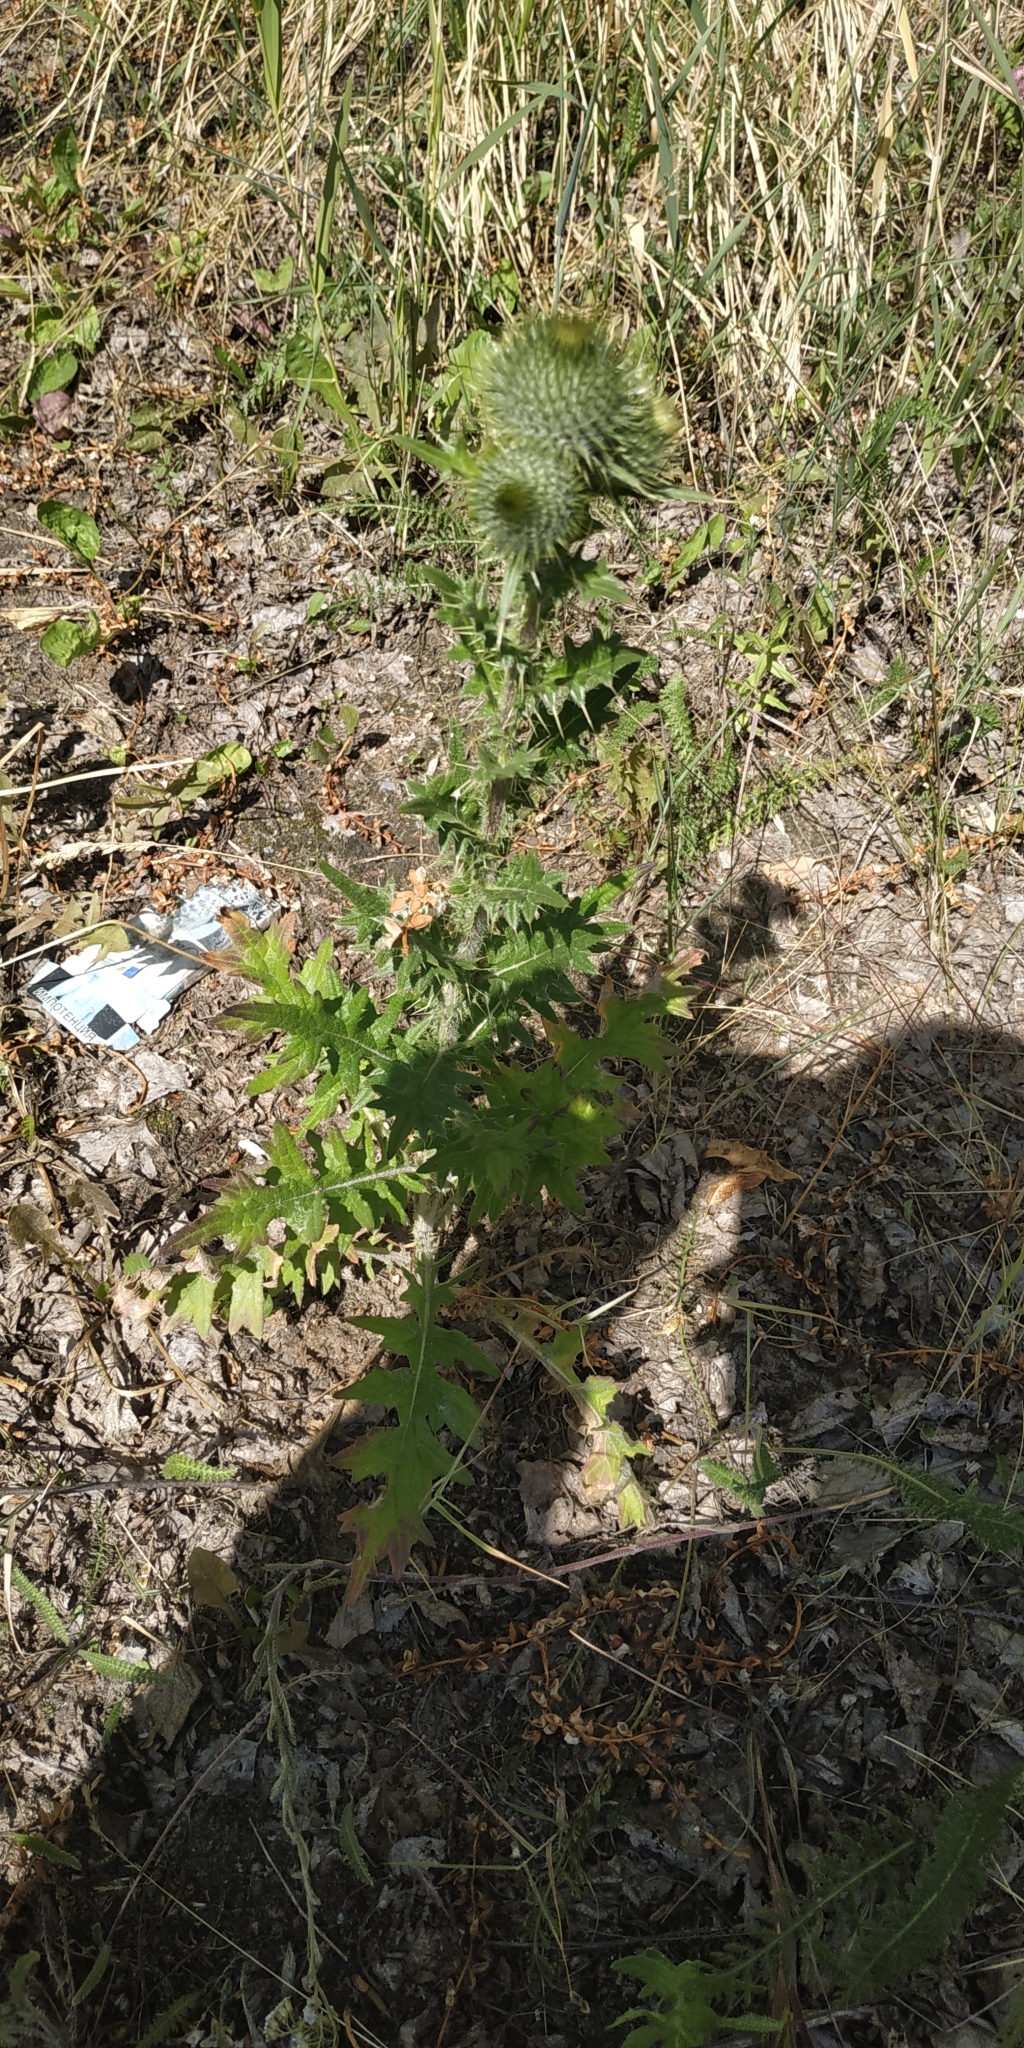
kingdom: Plantae
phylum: Tracheophyta
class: Magnoliopsida
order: Asterales
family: Asteraceae
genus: Cirsium
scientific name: Cirsium vulgare
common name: Bull thistle
